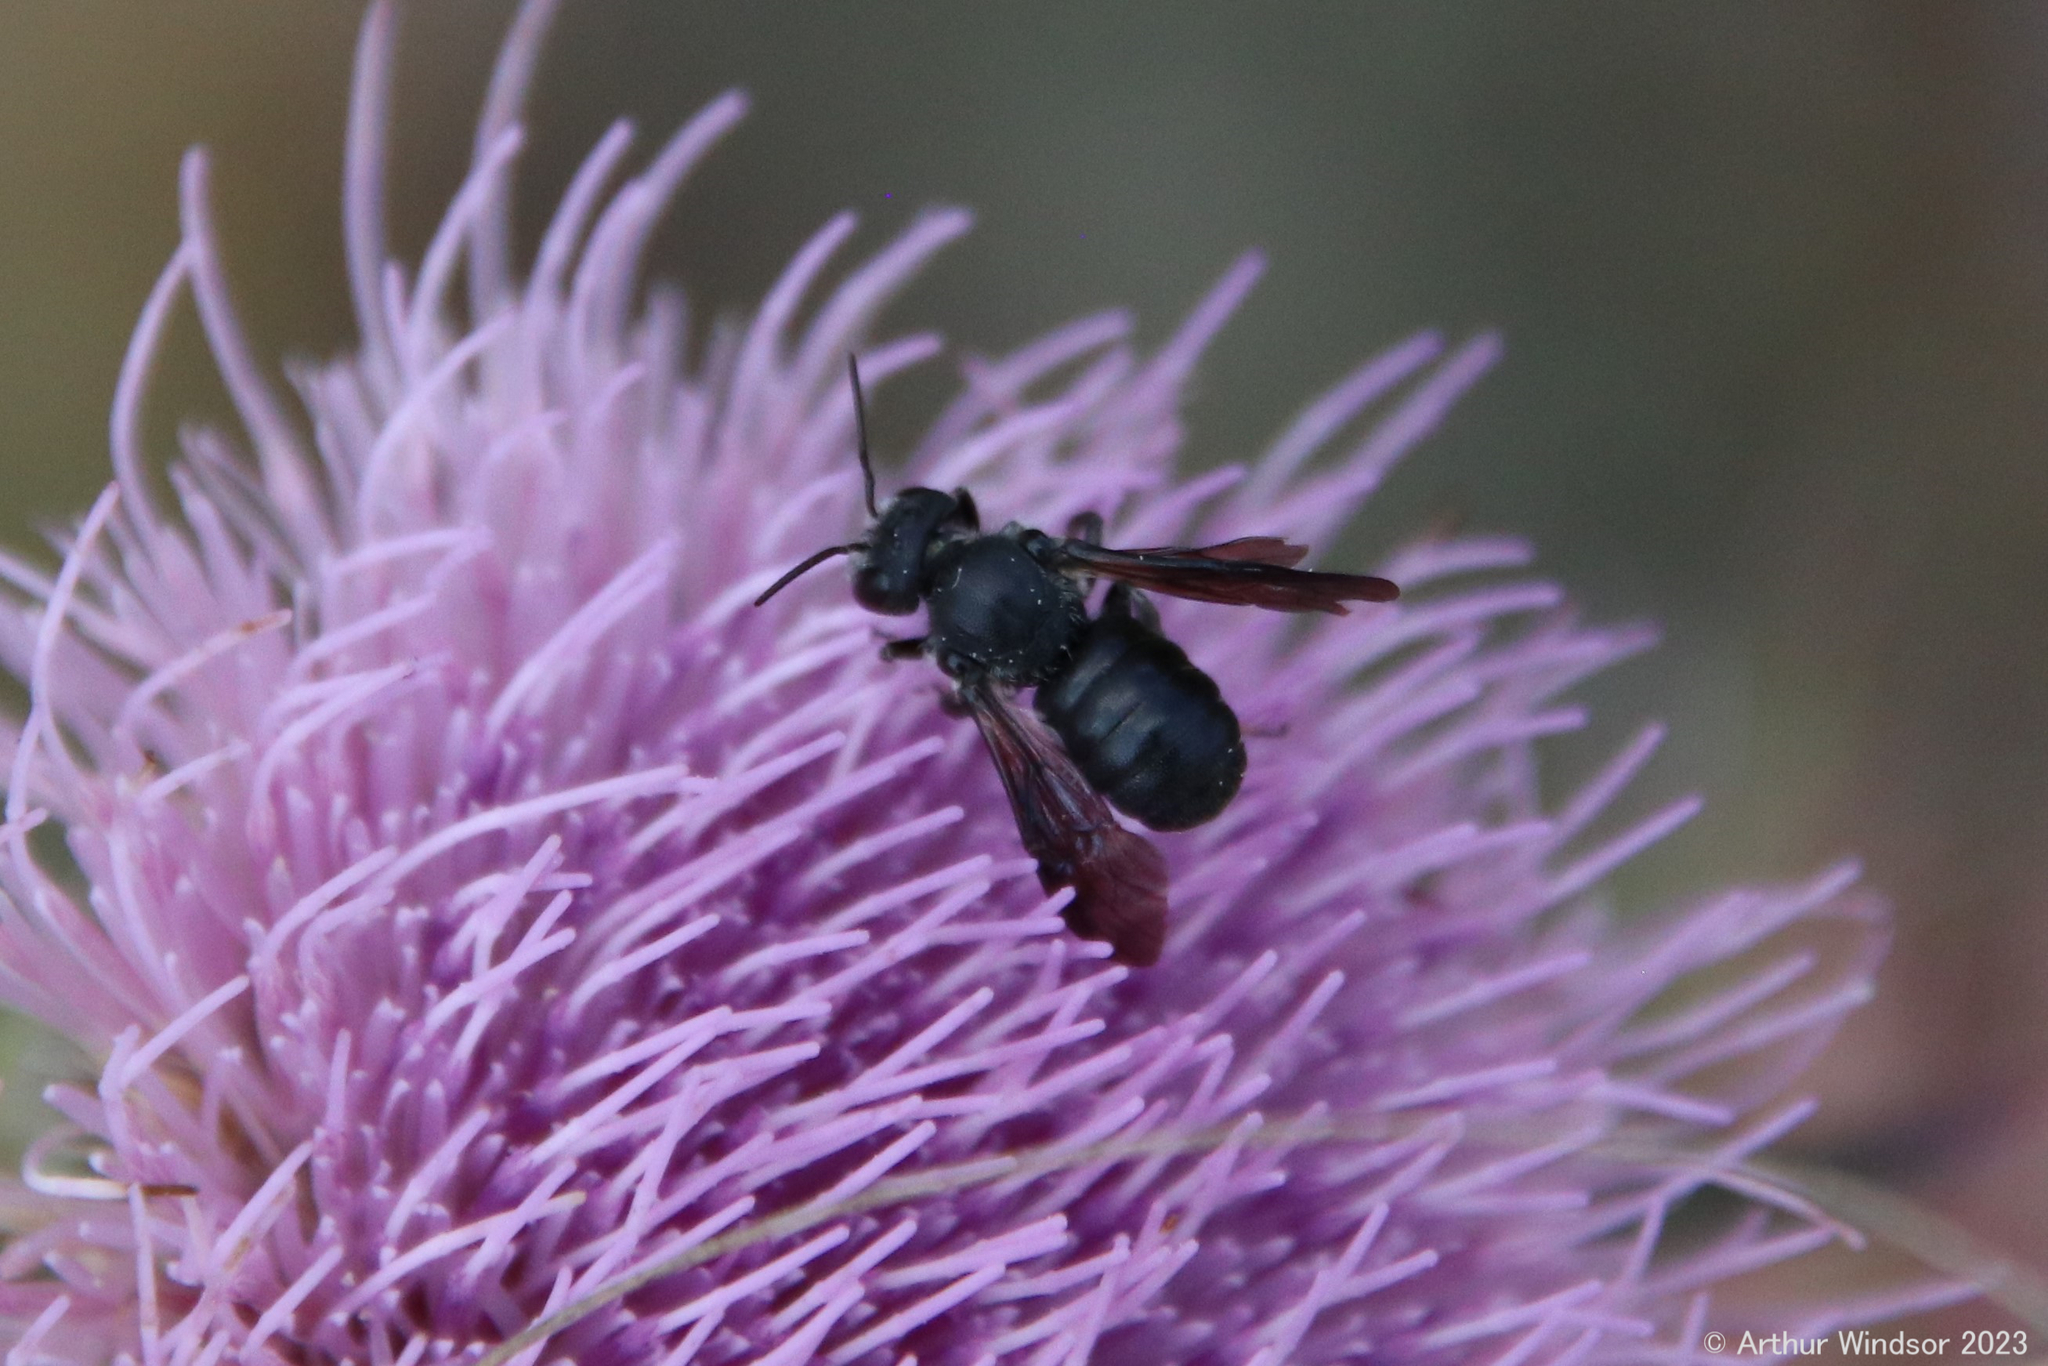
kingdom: Animalia
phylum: Arthropoda
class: Insecta
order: Hymenoptera
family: Megachilidae
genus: Stelis
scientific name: Stelis ater
